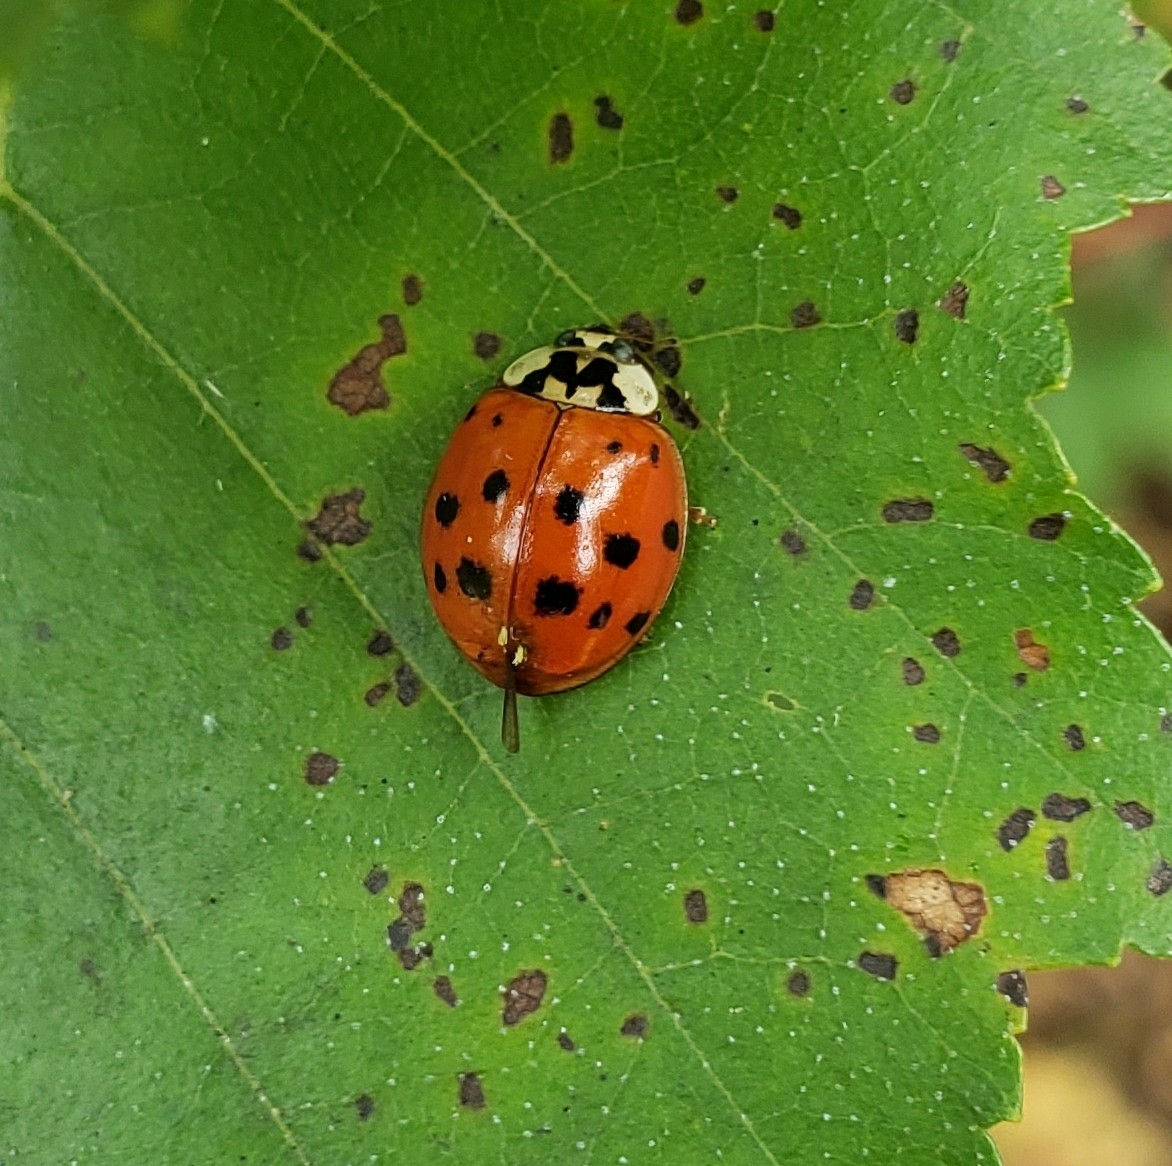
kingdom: Animalia
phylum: Arthropoda
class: Insecta
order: Coleoptera
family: Coccinellidae
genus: Harmonia
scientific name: Harmonia axyridis
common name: Harlequin ladybird
